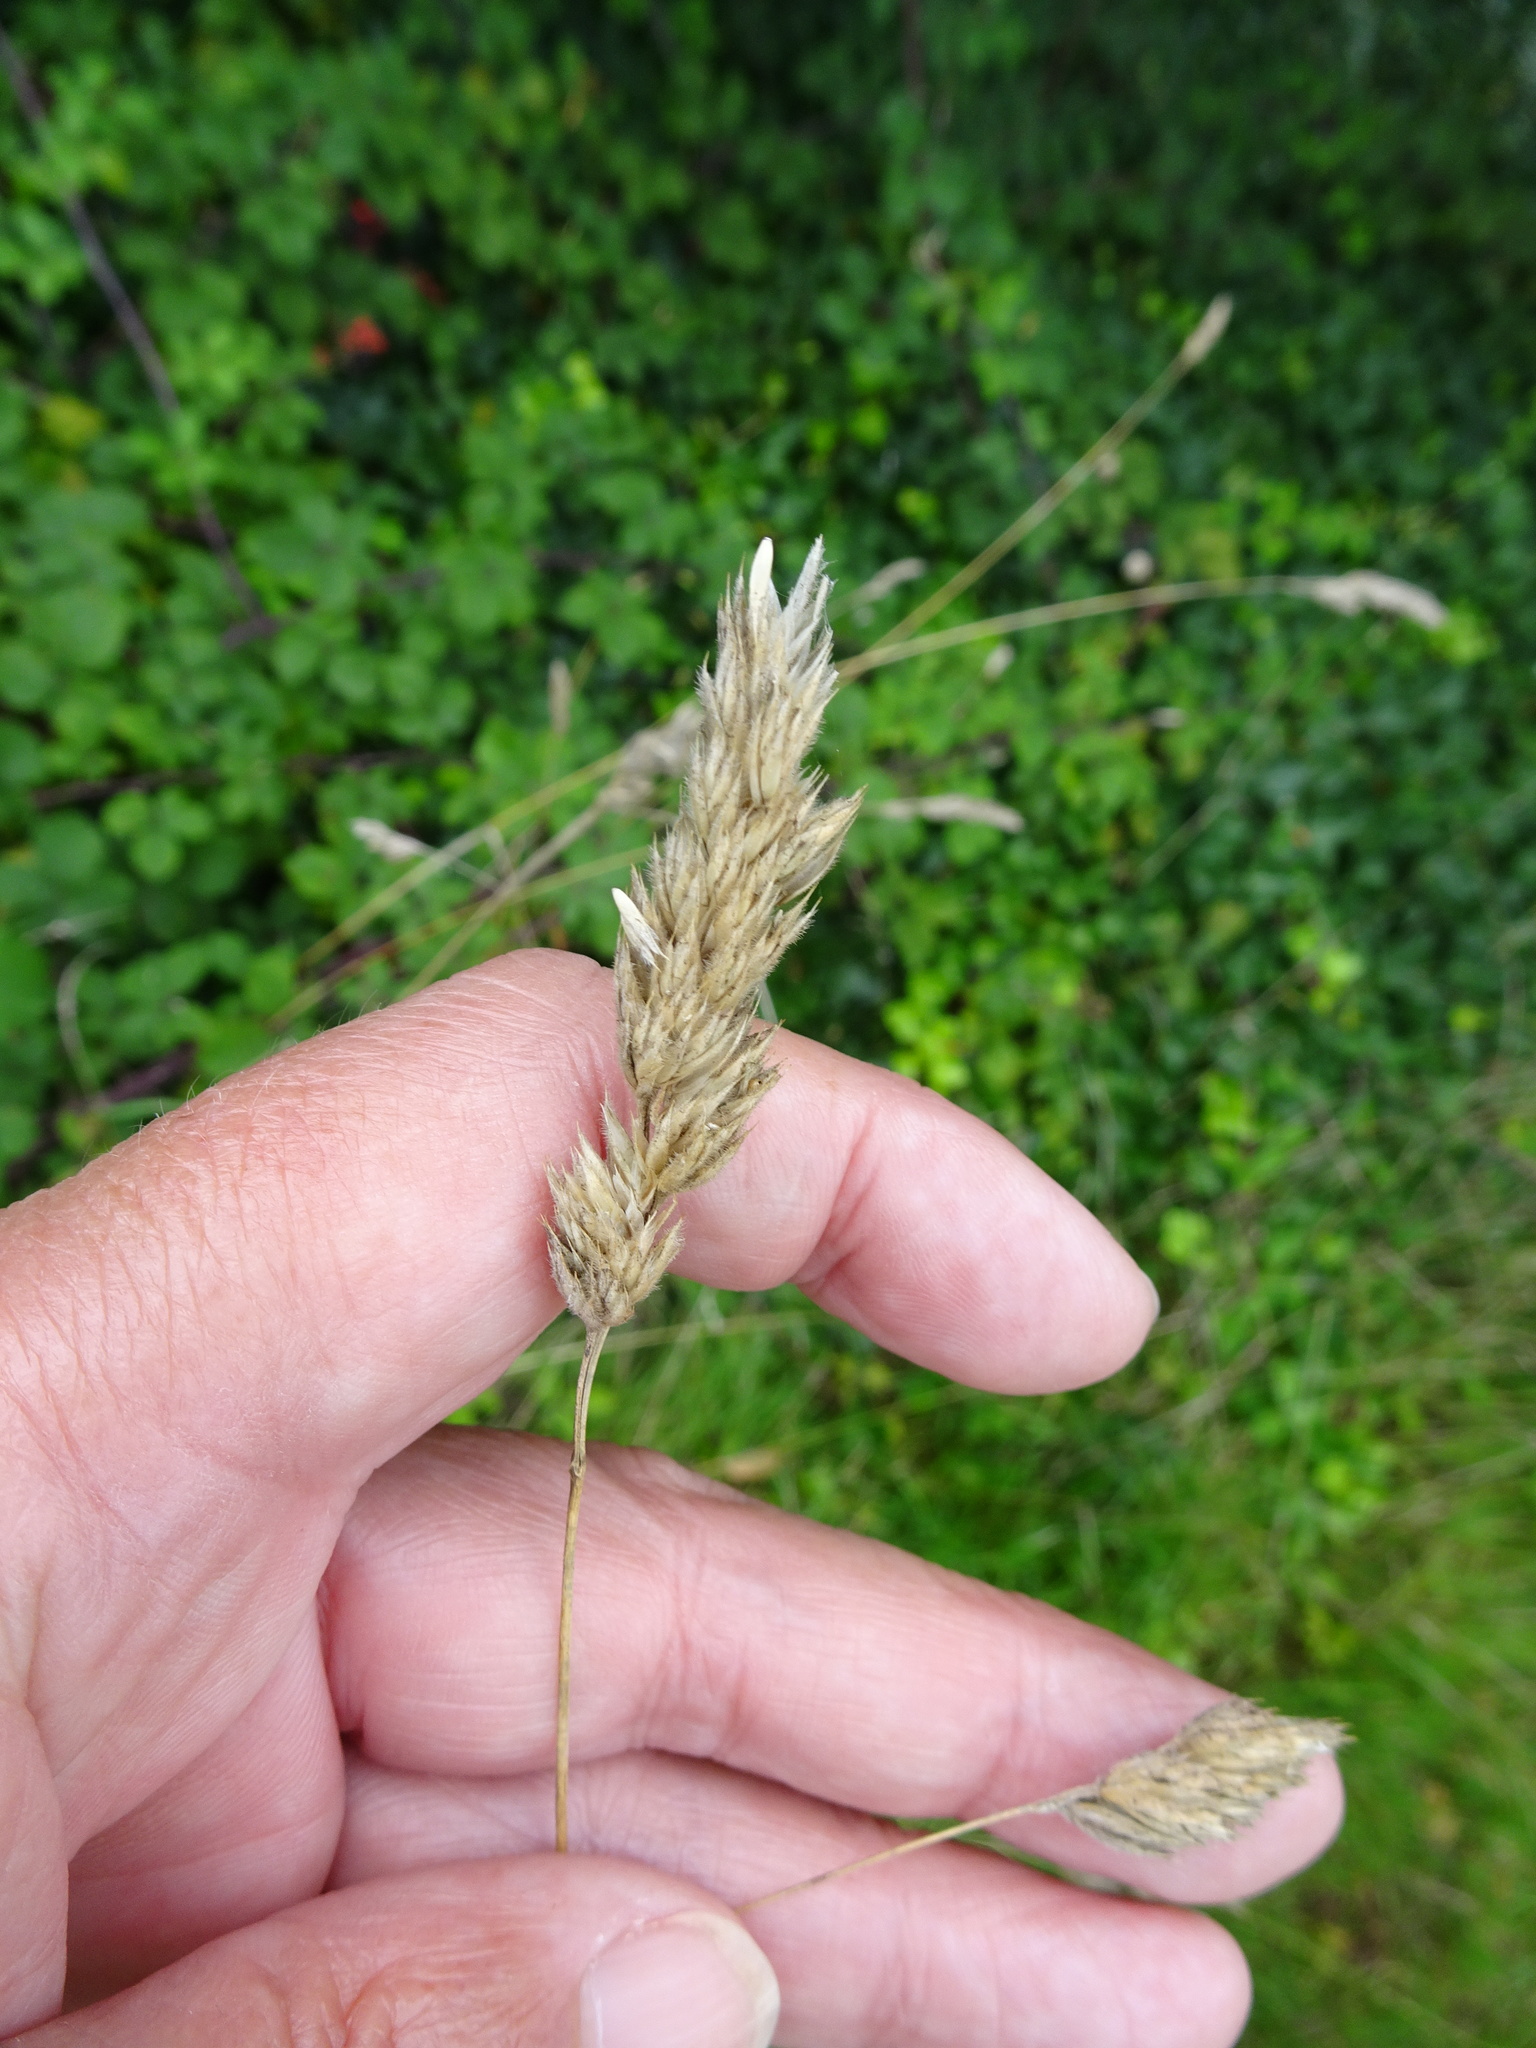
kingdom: Plantae
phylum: Tracheophyta
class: Liliopsida
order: Poales
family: Poaceae
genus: Dactylis
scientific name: Dactylis glomerata
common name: Orchardgrass
